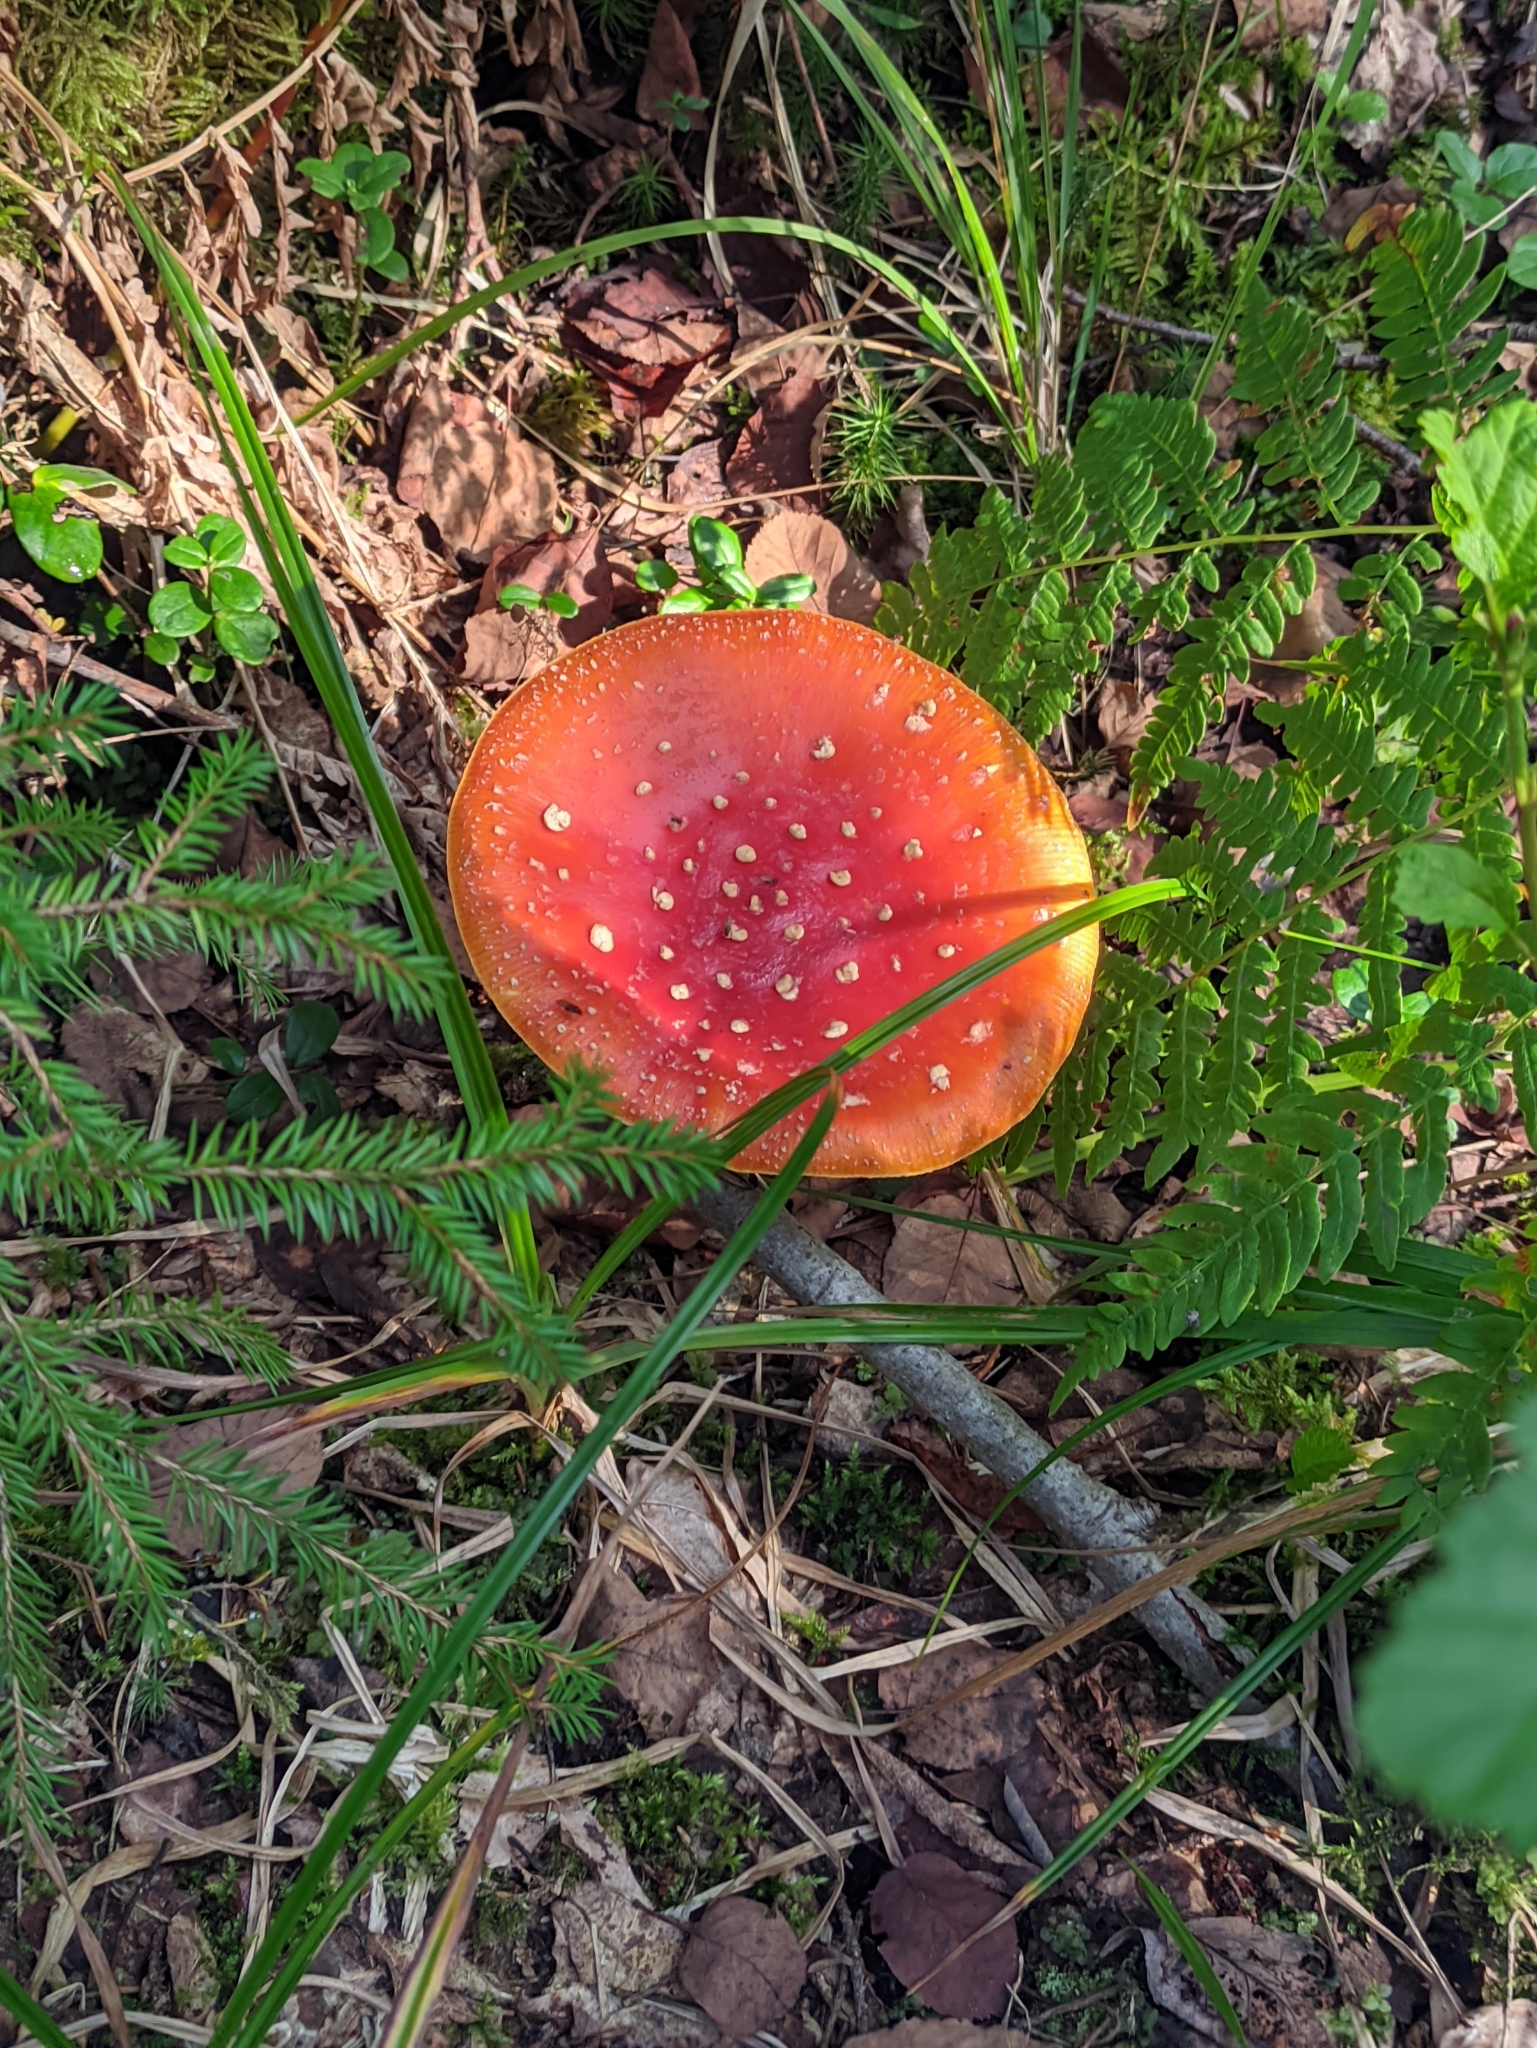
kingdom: Fungi
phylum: Basidiomycota
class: Agaricomycetes
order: Agaricales
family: Amanitaceae
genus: Amanita
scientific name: Amanita muscaria
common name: Fly agaric
